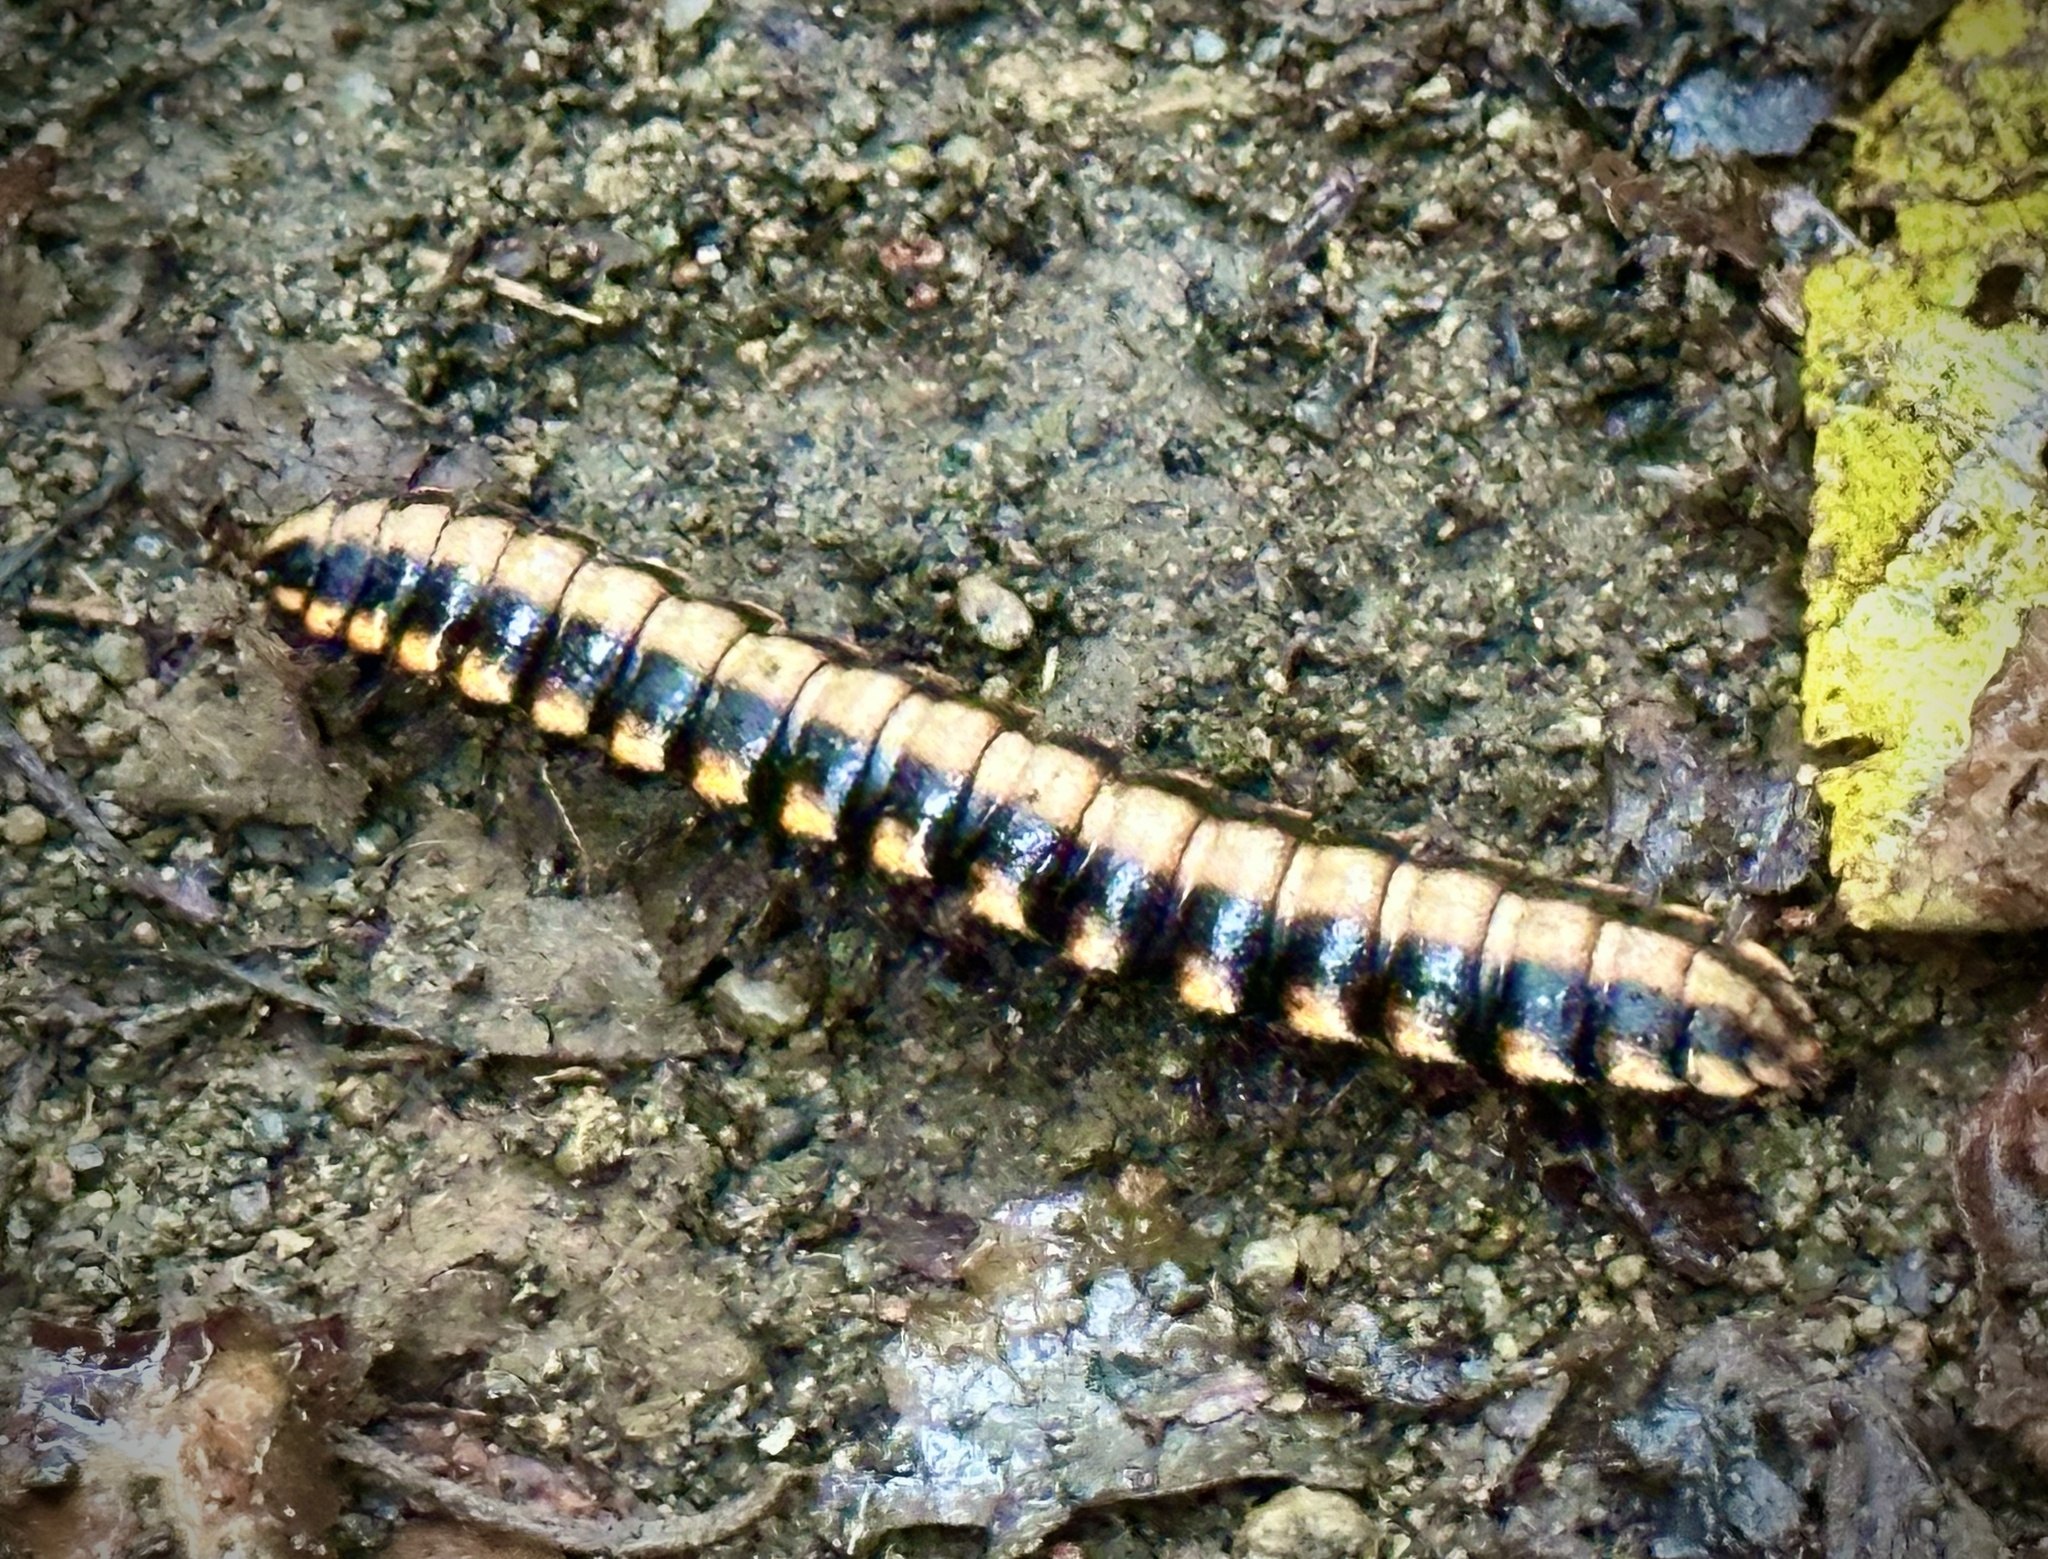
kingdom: Animalia
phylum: Arthropoda
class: Diplopoda
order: Polydesmida
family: Platyrhacidae
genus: Nyssodesmus
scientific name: Nyssodesmus python
